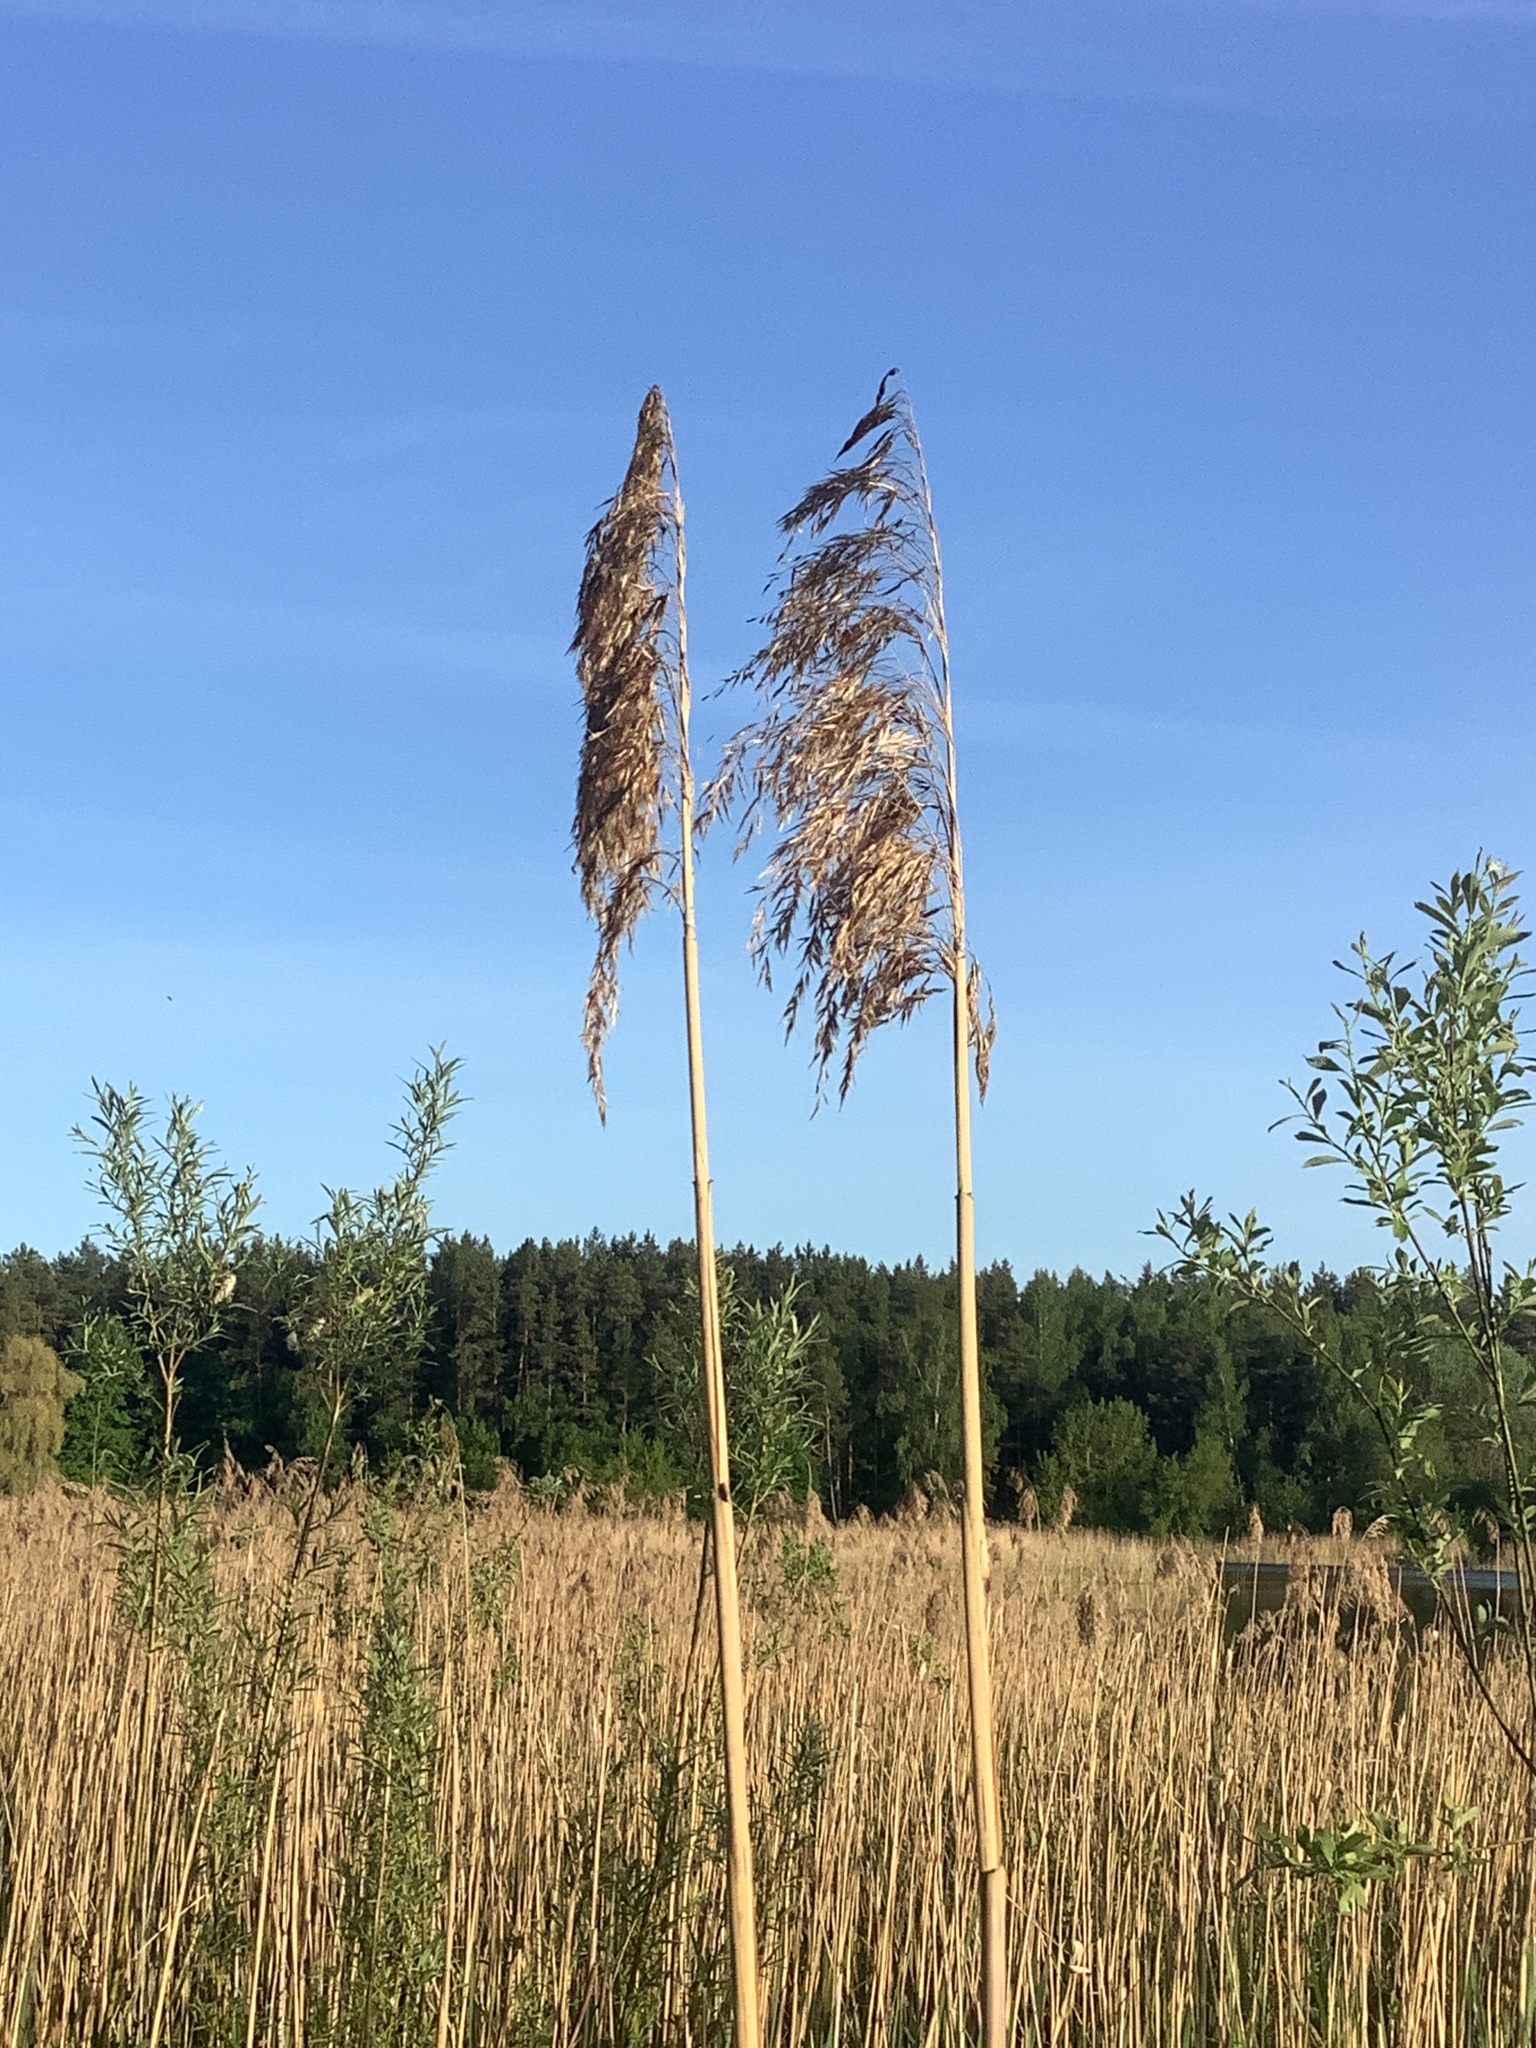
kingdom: Plantae
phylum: Tracheophyta
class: Liliopsida
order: Poales
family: Poaceae
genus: Phragmites
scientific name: Phragmites australis
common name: Common reed
